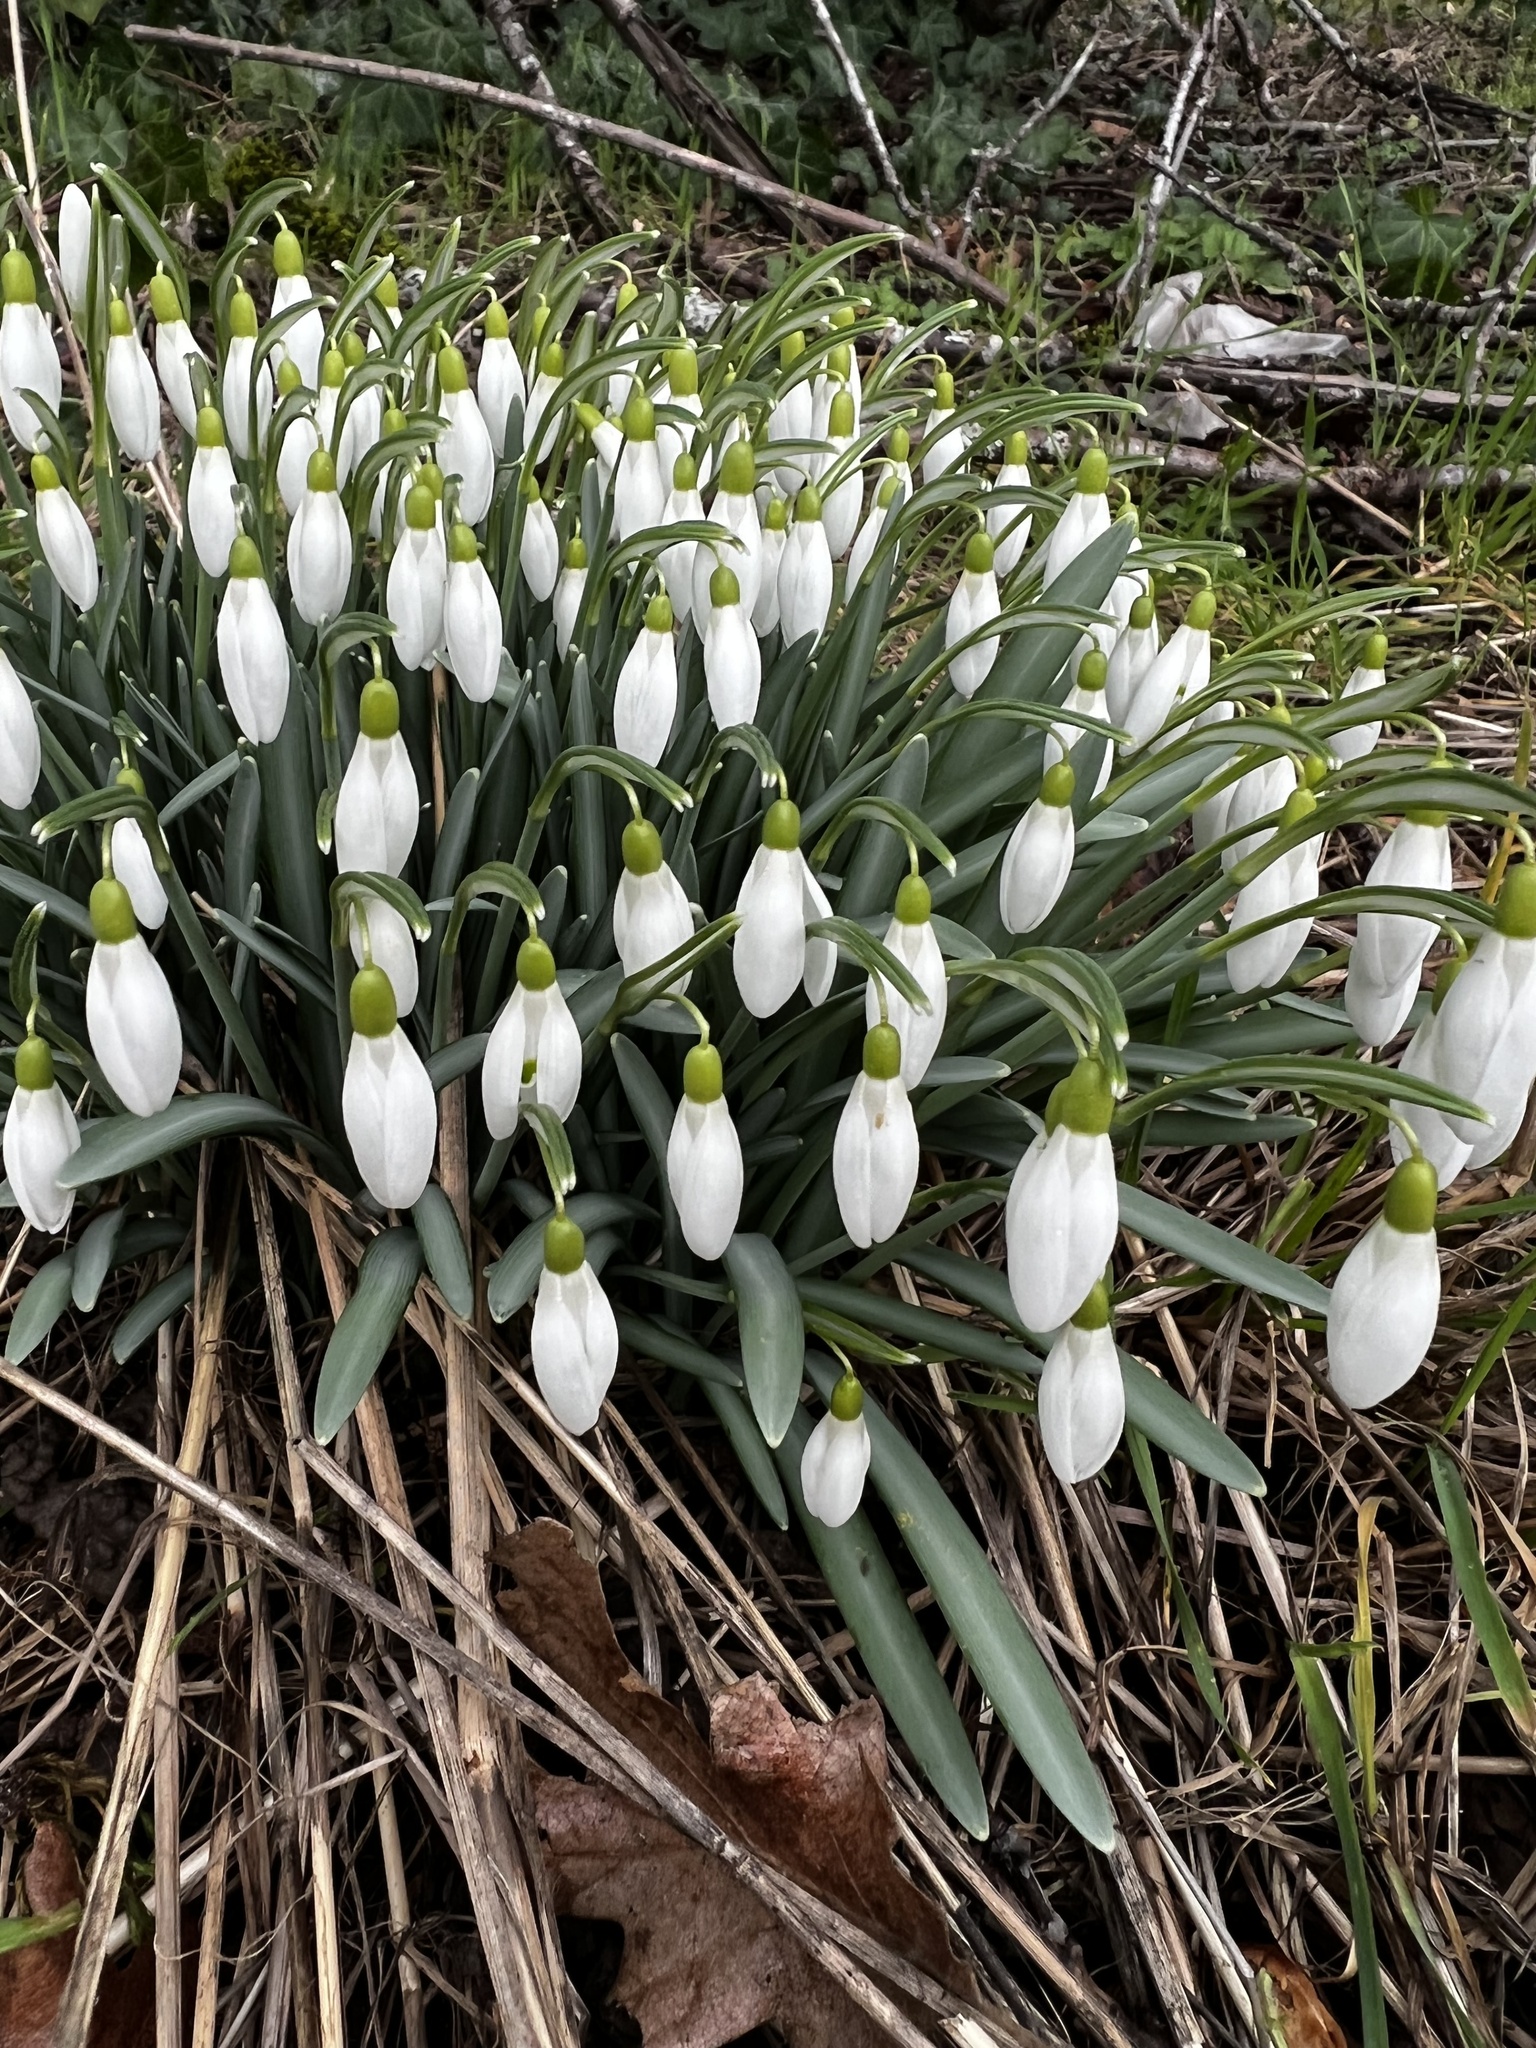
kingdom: Plantae
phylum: Tracheophyta
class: Liliopsida
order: Asparagales
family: Amaryllidaceae
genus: Galanthus
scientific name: Galanthus nivalis
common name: Snowdrop
